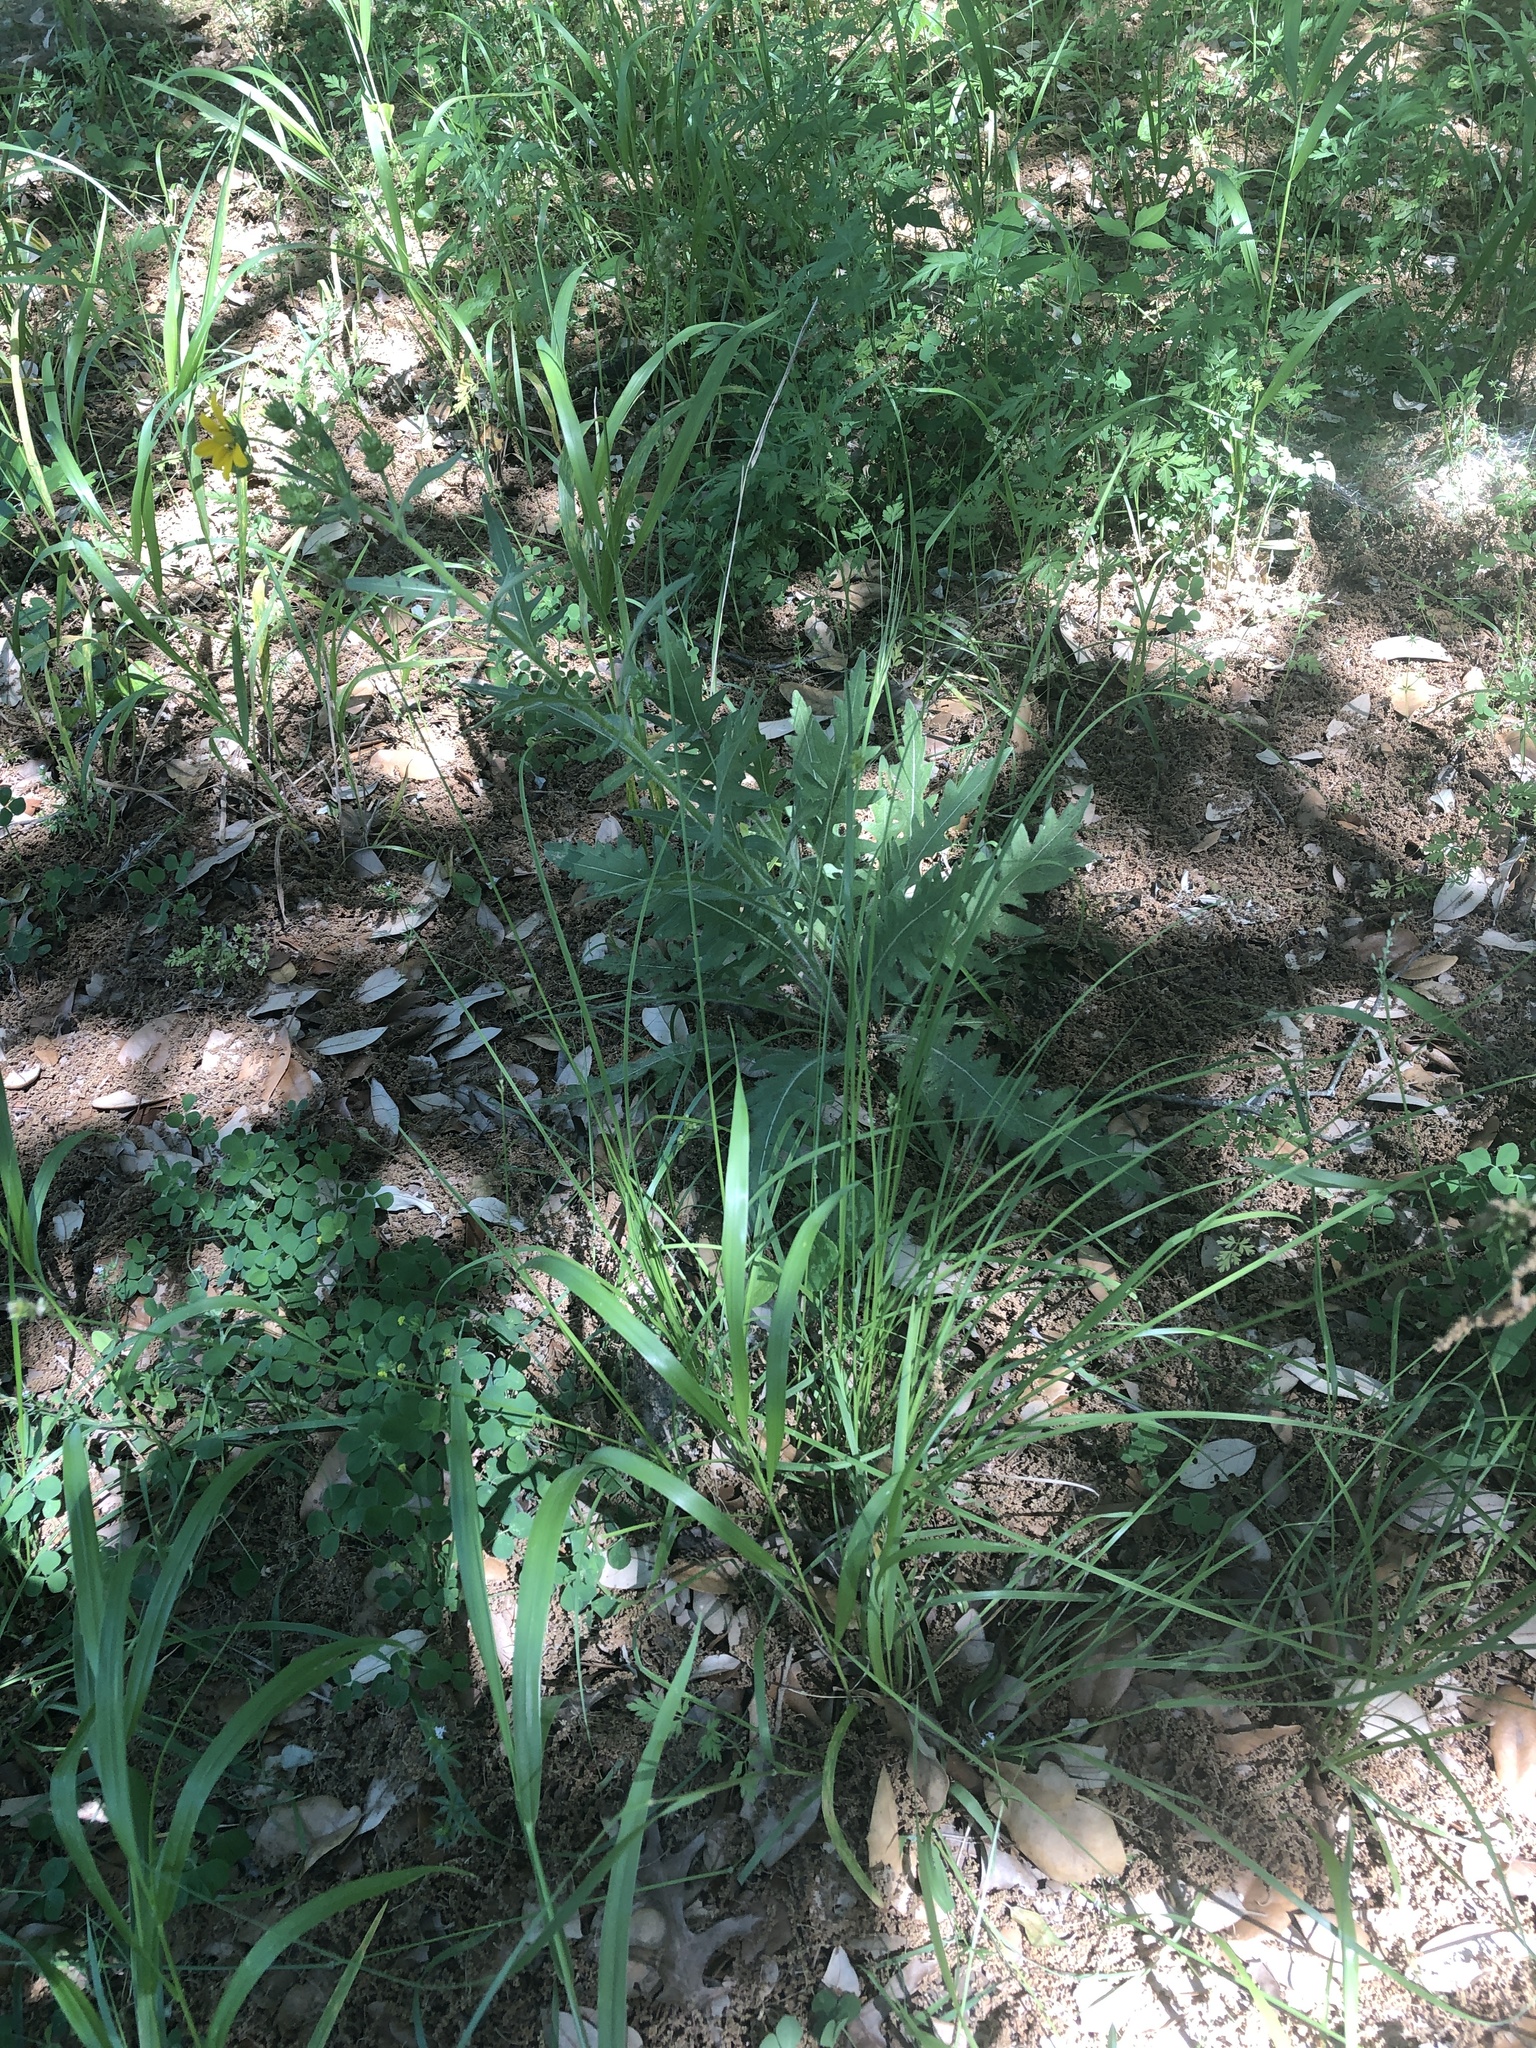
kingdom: Plantae
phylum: Tracheophyta
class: Liliopsida
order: Poales
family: Cyperaceae
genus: Carex
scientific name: Carex muehlenbergii
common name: Muhlenberg's bracted sedge
